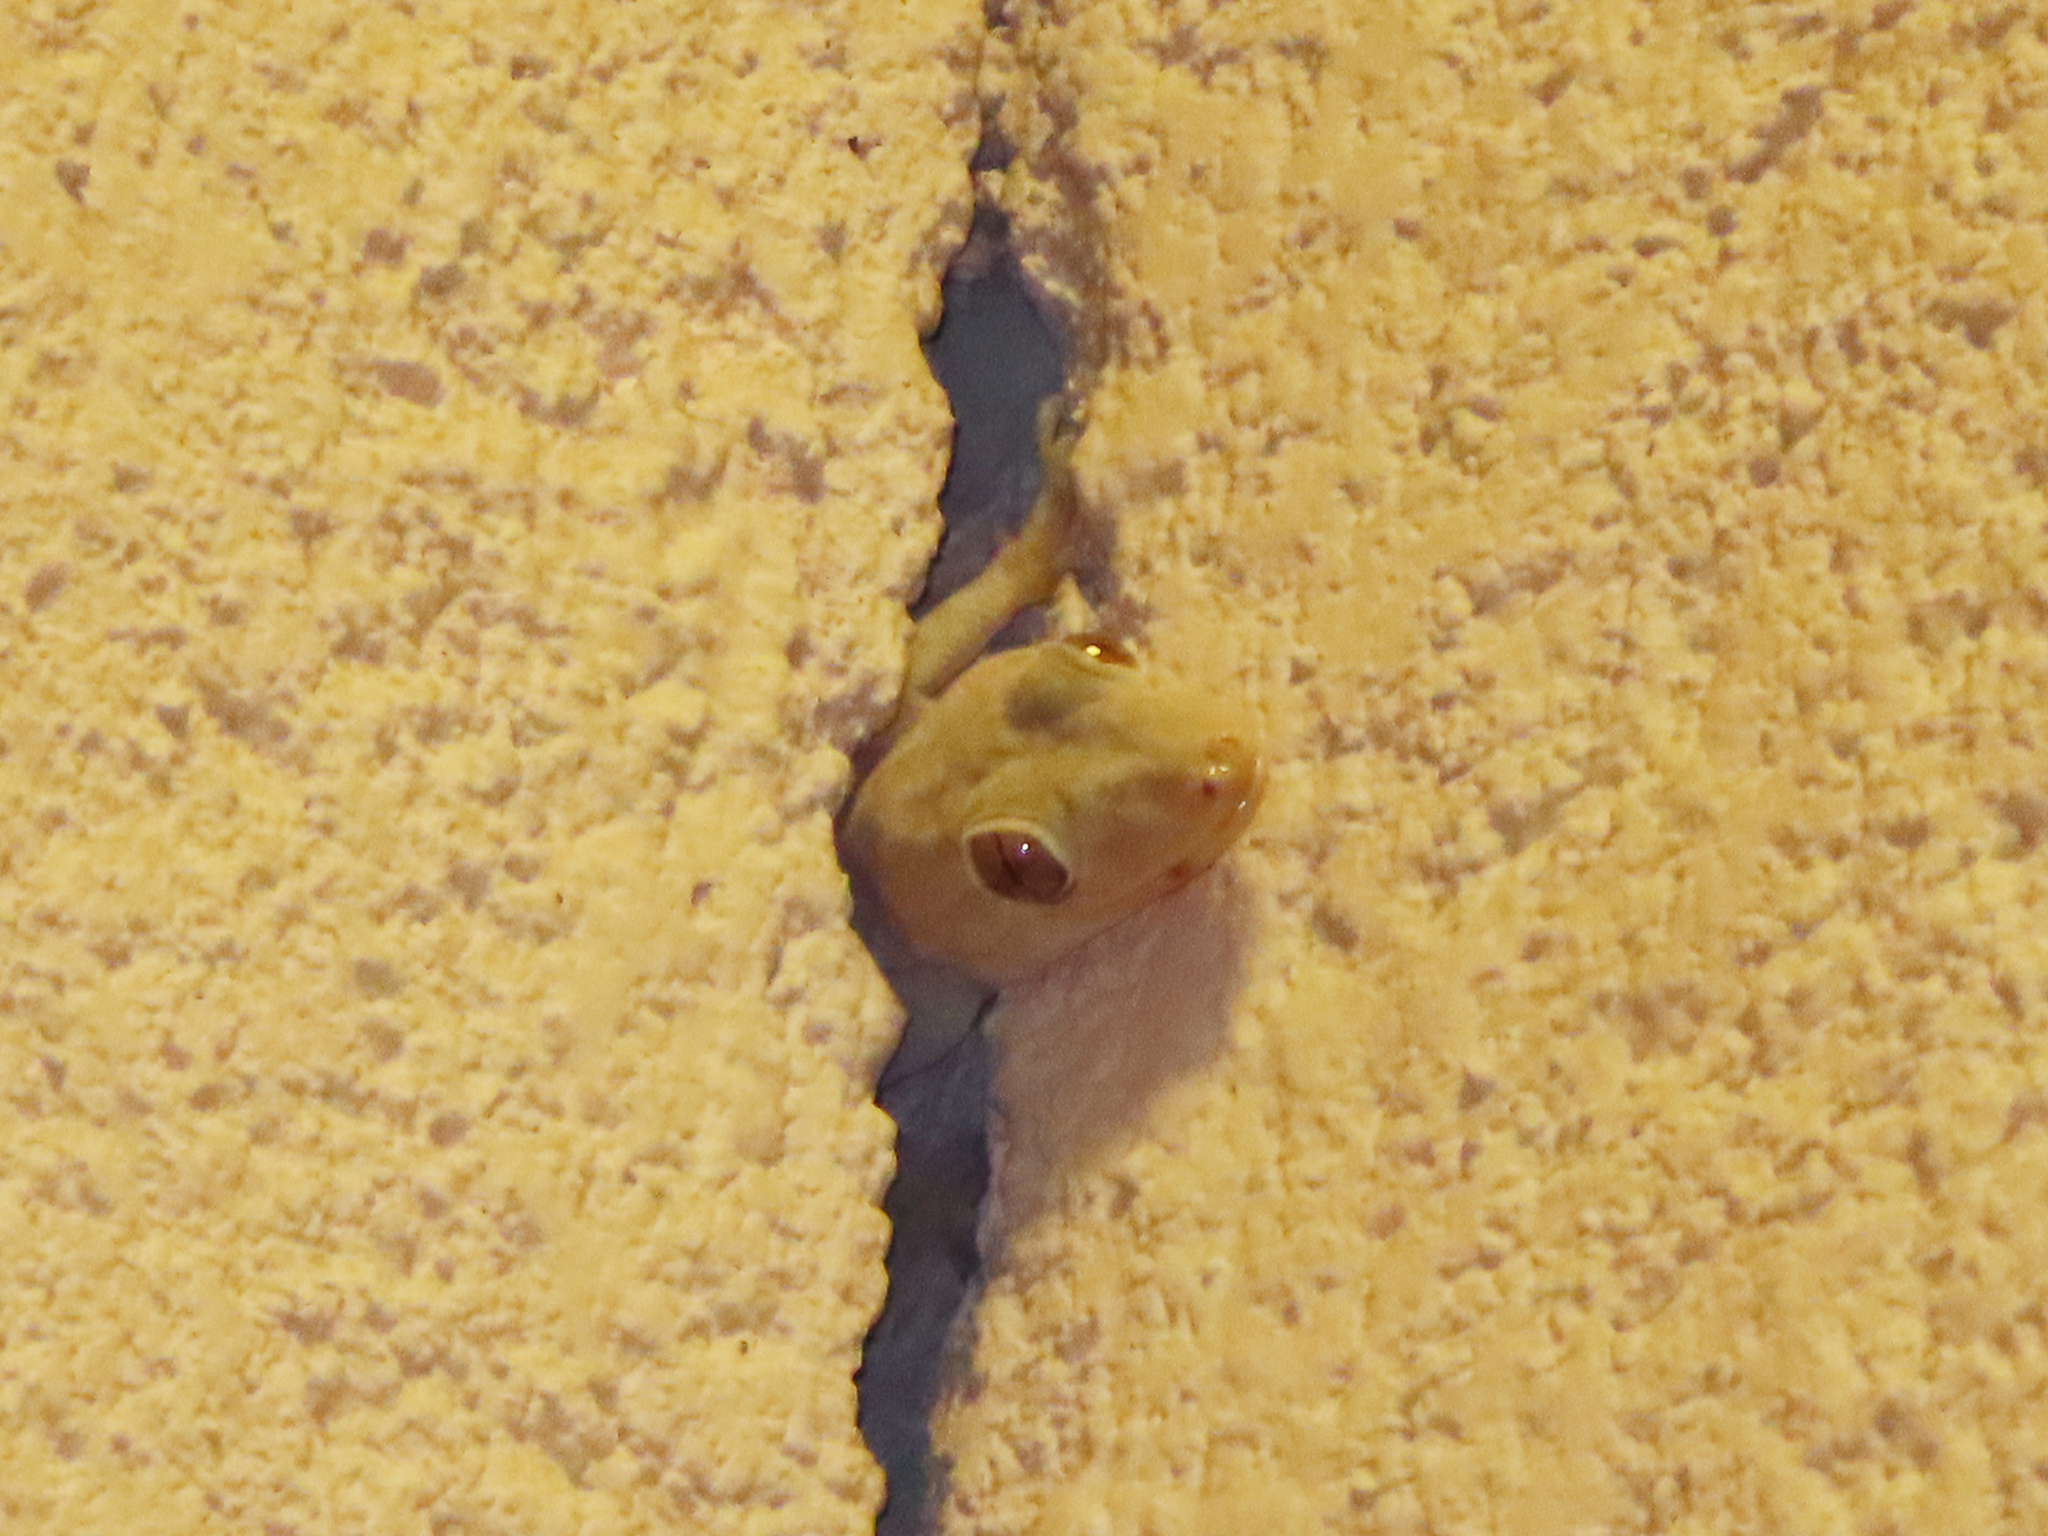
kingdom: Animalia
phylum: Chordata
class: Squamata
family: Gekkonidae
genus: Hemidactylus
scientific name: Hemidactylus flaviviridis
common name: Northern house gecko
